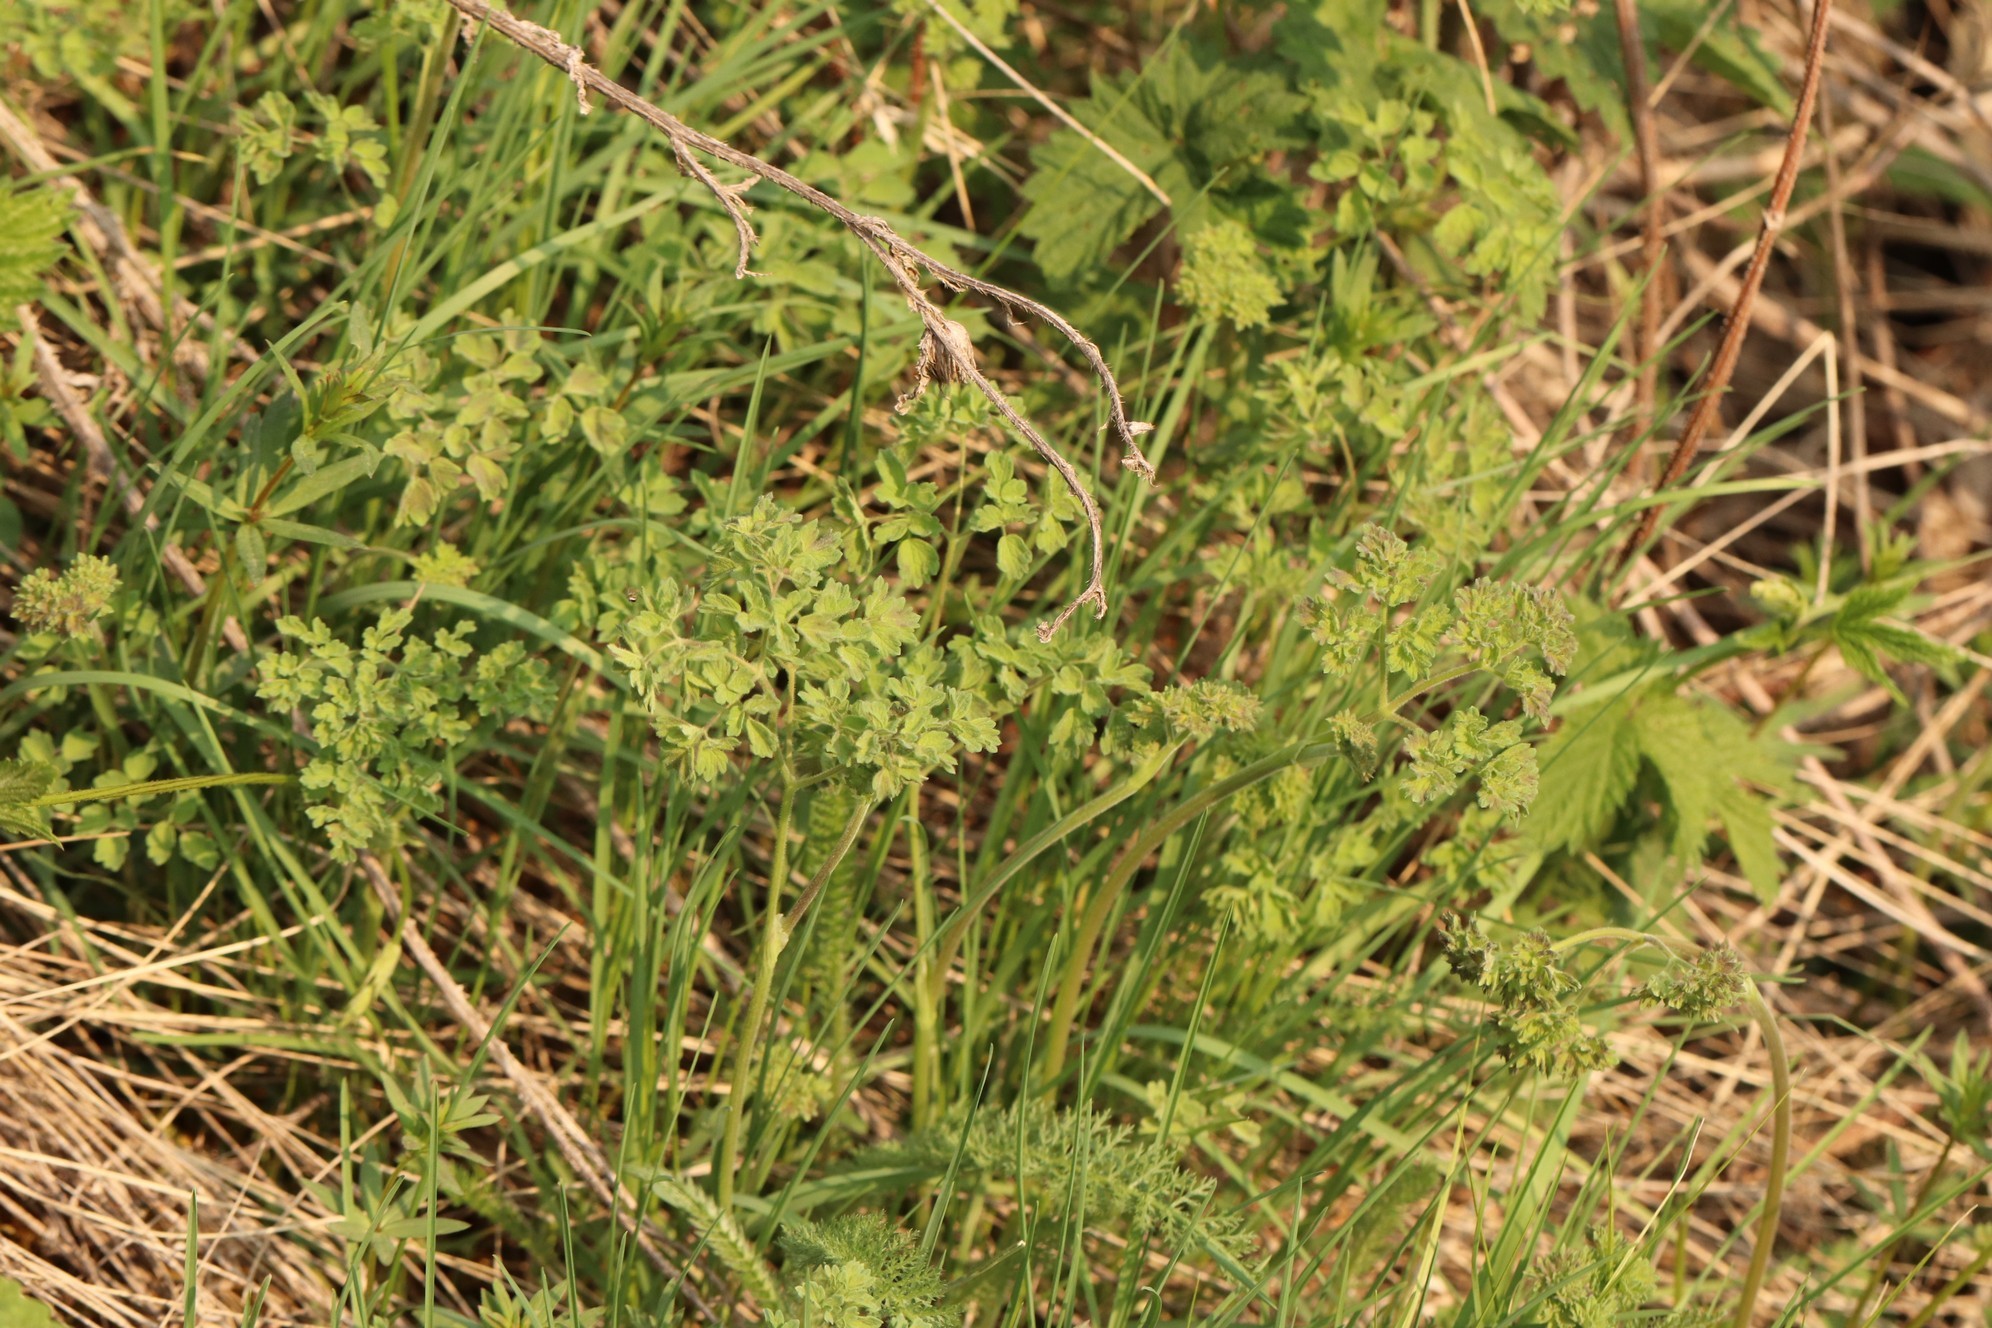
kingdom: Plantae
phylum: Tracheophyta
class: Magnoliopsida
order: Ranunculales
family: Ranunculaceae
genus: Thalictrum
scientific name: Thalictrum foetidum
